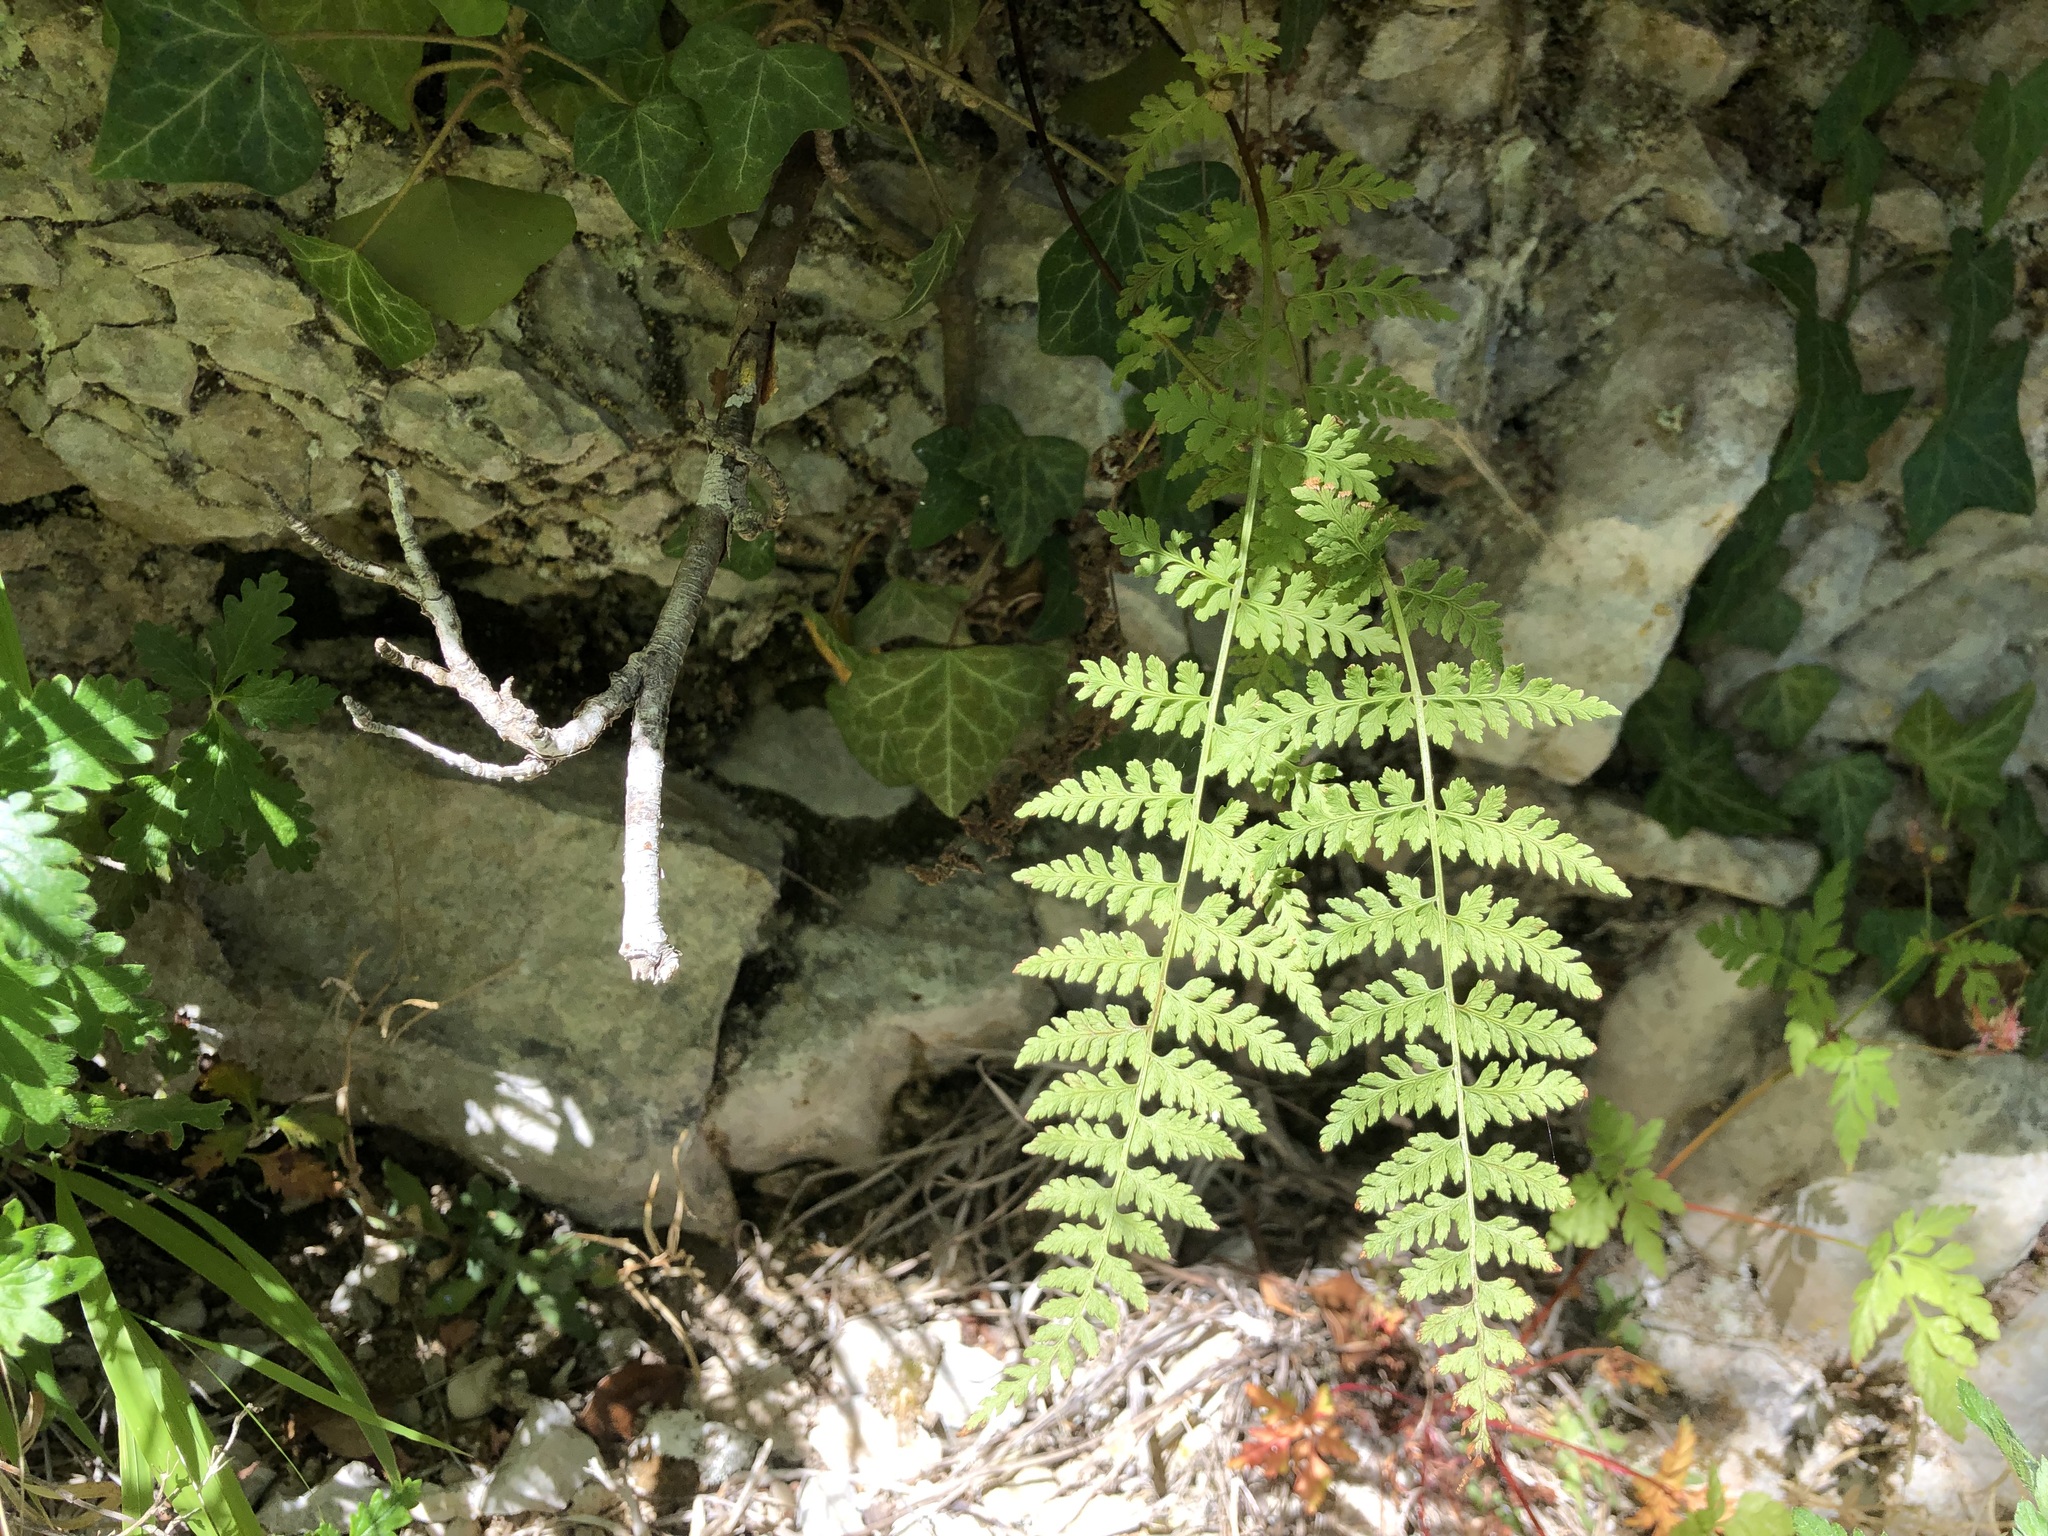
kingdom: Plantae
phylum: Tracheophyta
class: Polypodiopsida
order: Polypodiales
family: Cystopteridaceae
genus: Cystopteris
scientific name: Cystopteris fragilis
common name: Brittle bladder fern
